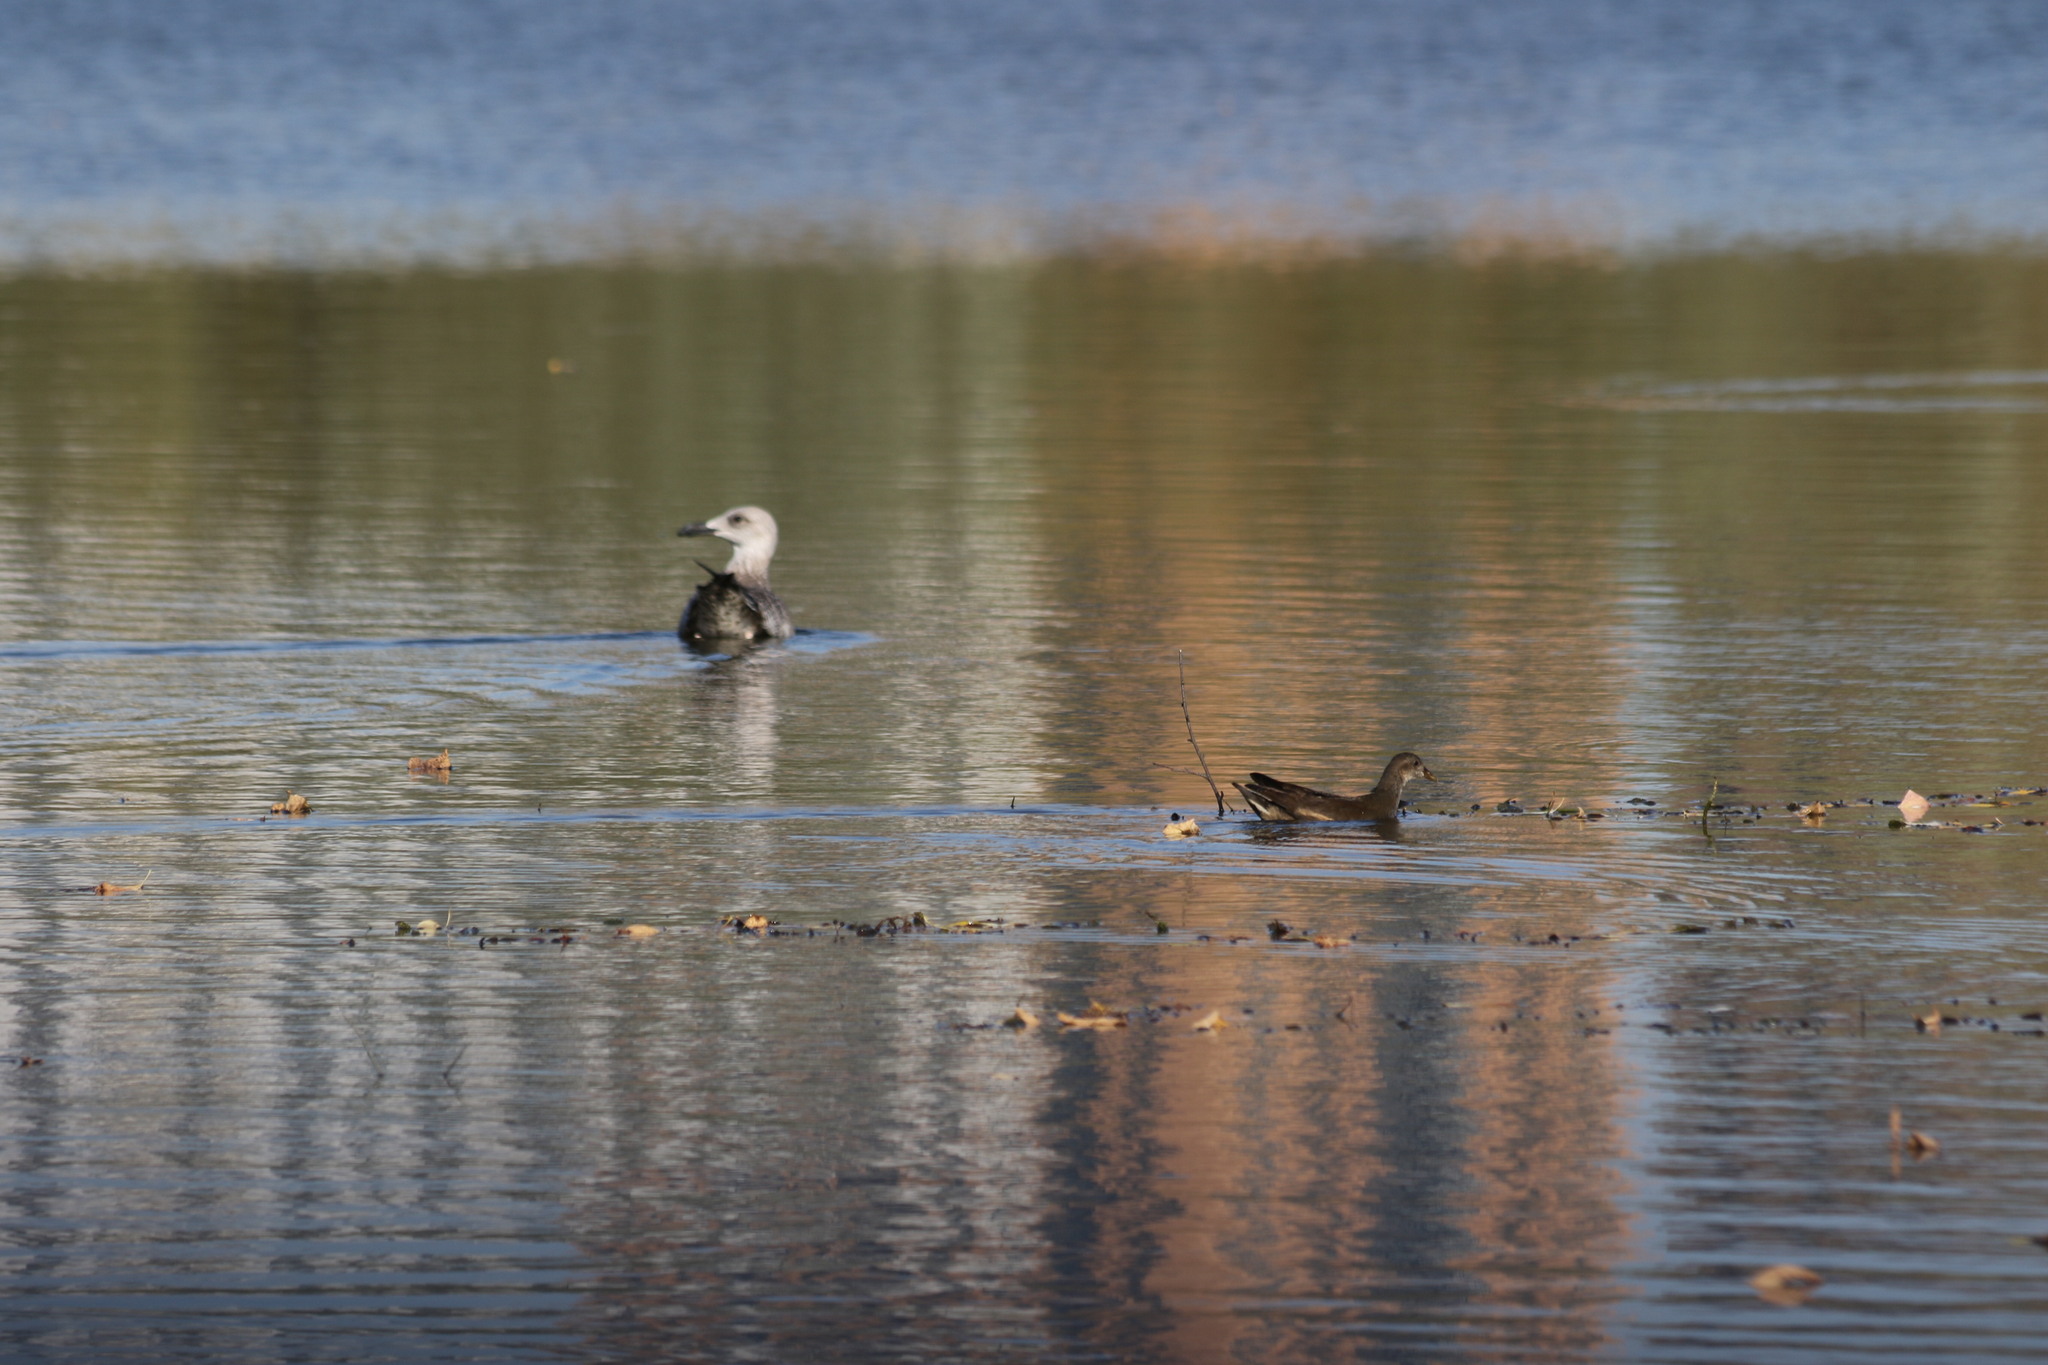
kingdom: Animalia
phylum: Chordata
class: Aves
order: Charadriiformes
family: Laridae
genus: Larus
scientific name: Larus cachinnans
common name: Caspian gull
